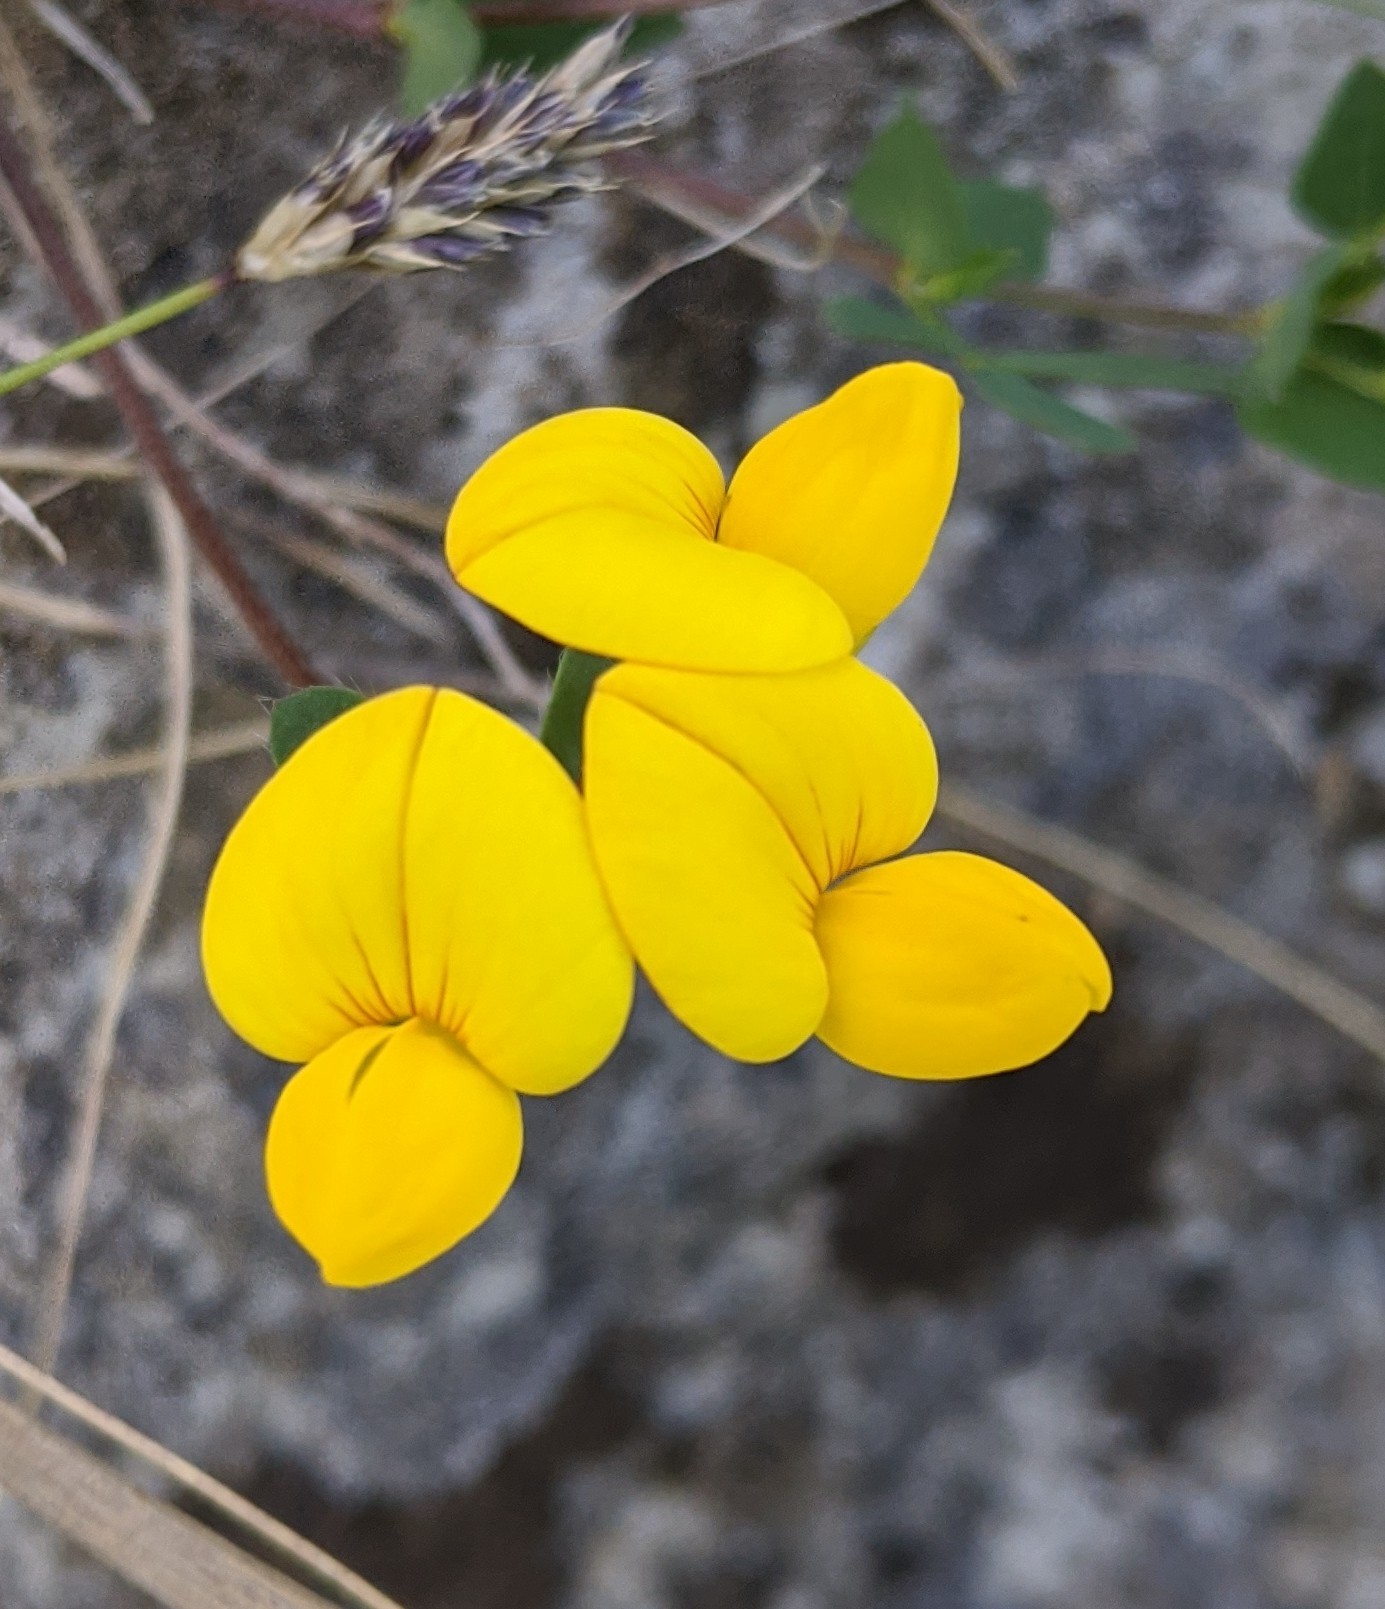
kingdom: Plantae
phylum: Tracheophyta
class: Magnoliopsida
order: Fabales
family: Fabaceae
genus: Lotus
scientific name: Lotus corniculatus
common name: Common bird's-foot-trefoil
